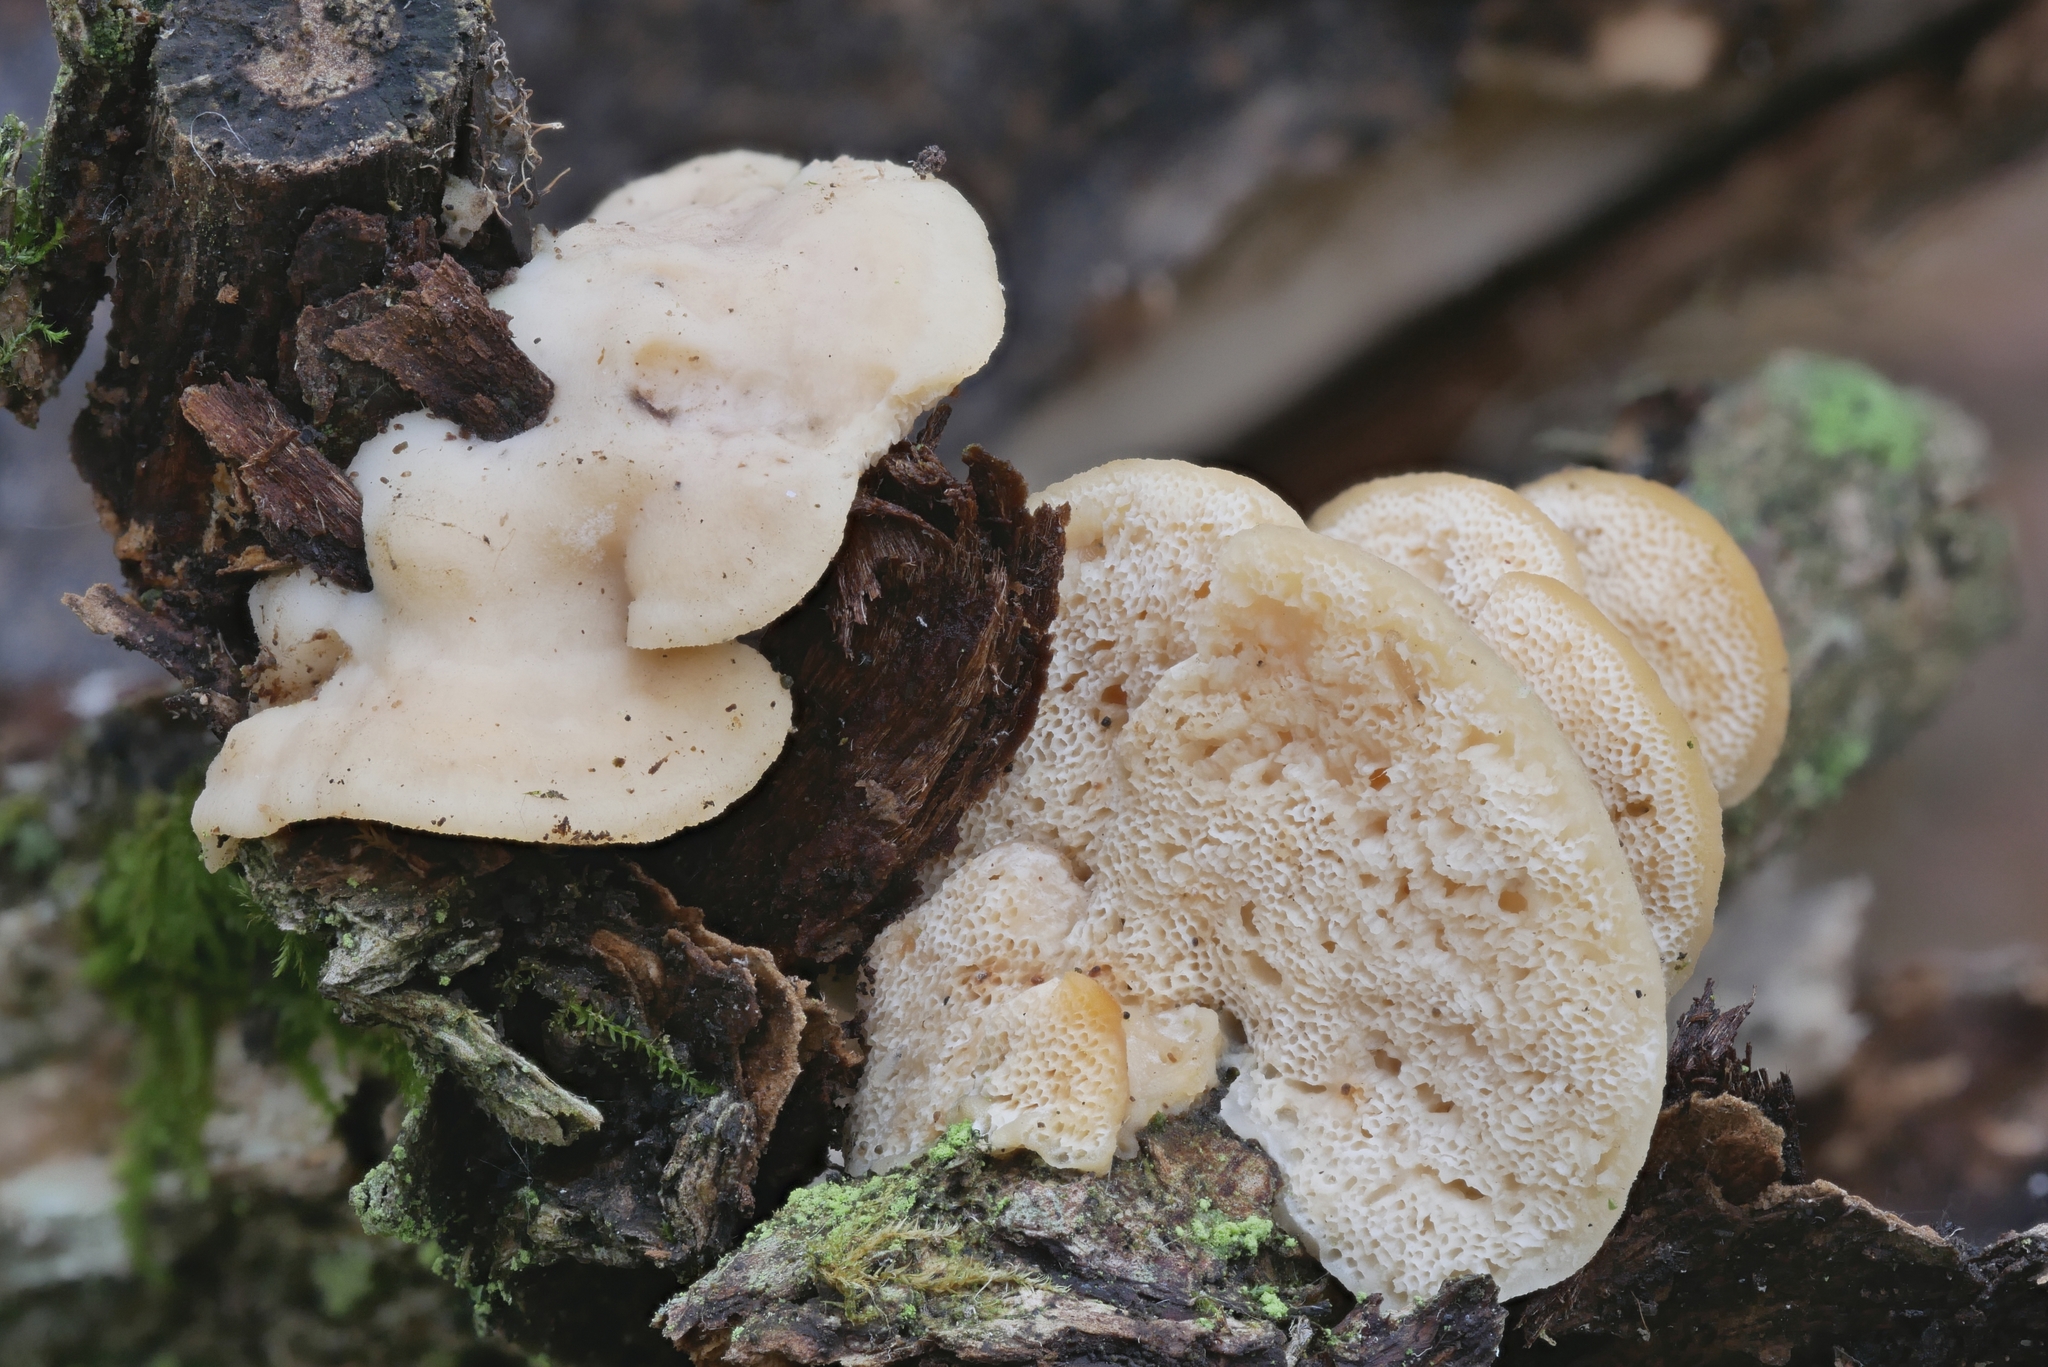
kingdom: Fungi
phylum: Basidiomycota
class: Agaricomycetes
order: Polyporales
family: Steccherinaceae
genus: Antrodiella
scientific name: Antrodiella onychoides
